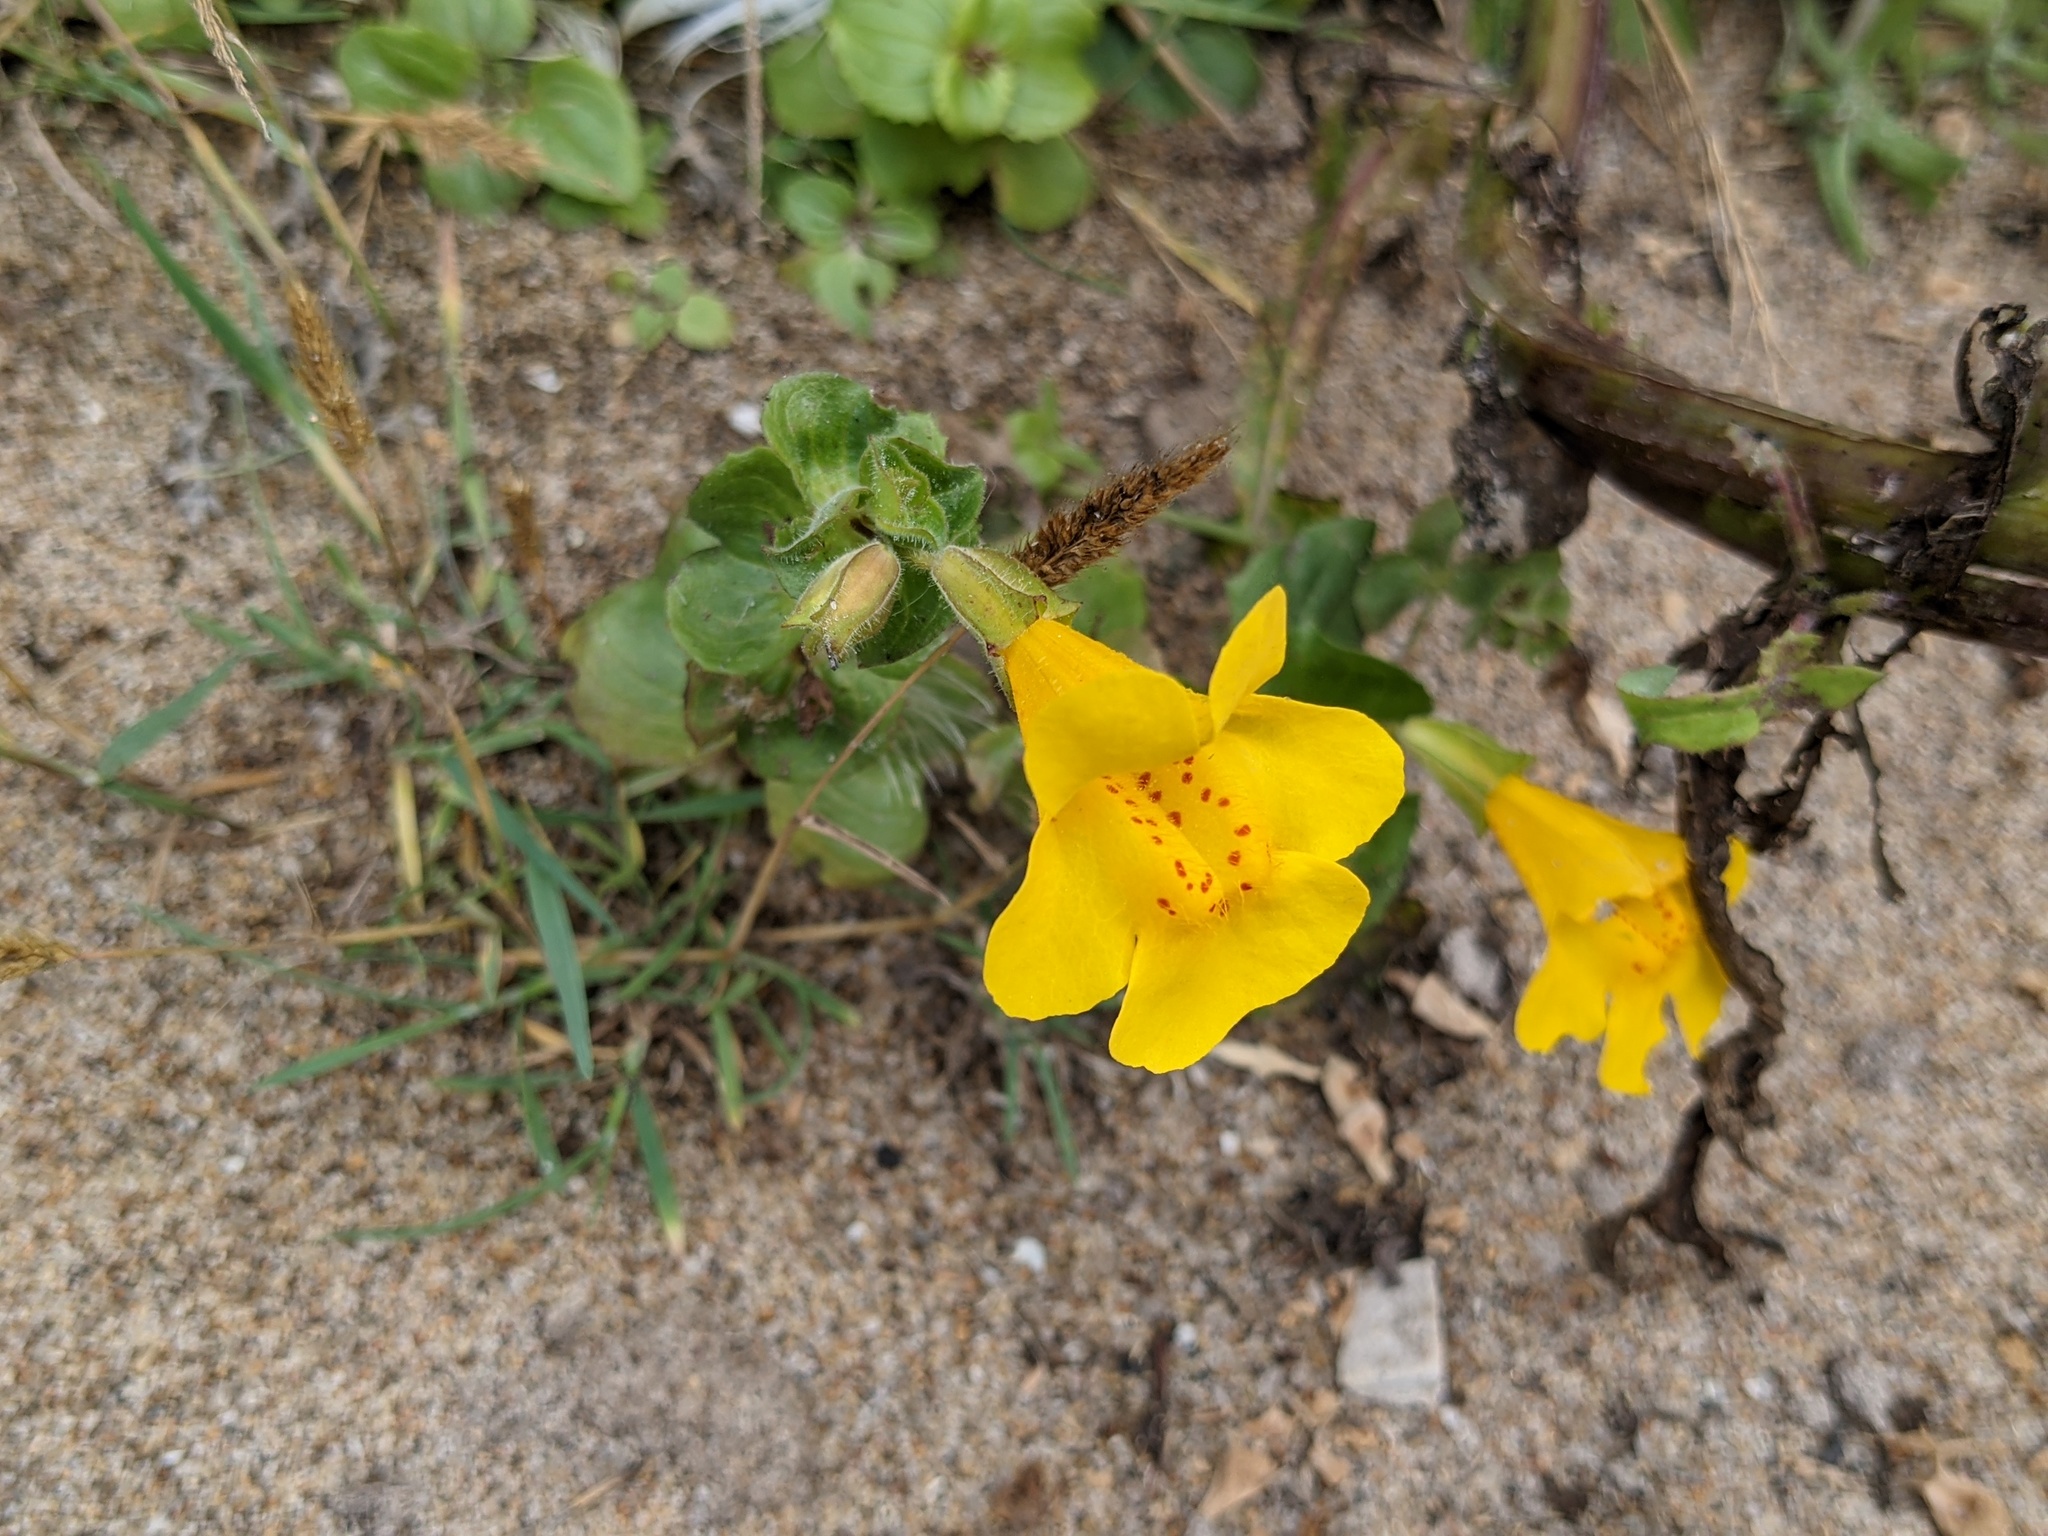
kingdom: Plantae
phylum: Tracheophyta
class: Magnoliopsida
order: Lamiales
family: Phrymaceae
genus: Erythranthe
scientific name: Erythranthe grandis
